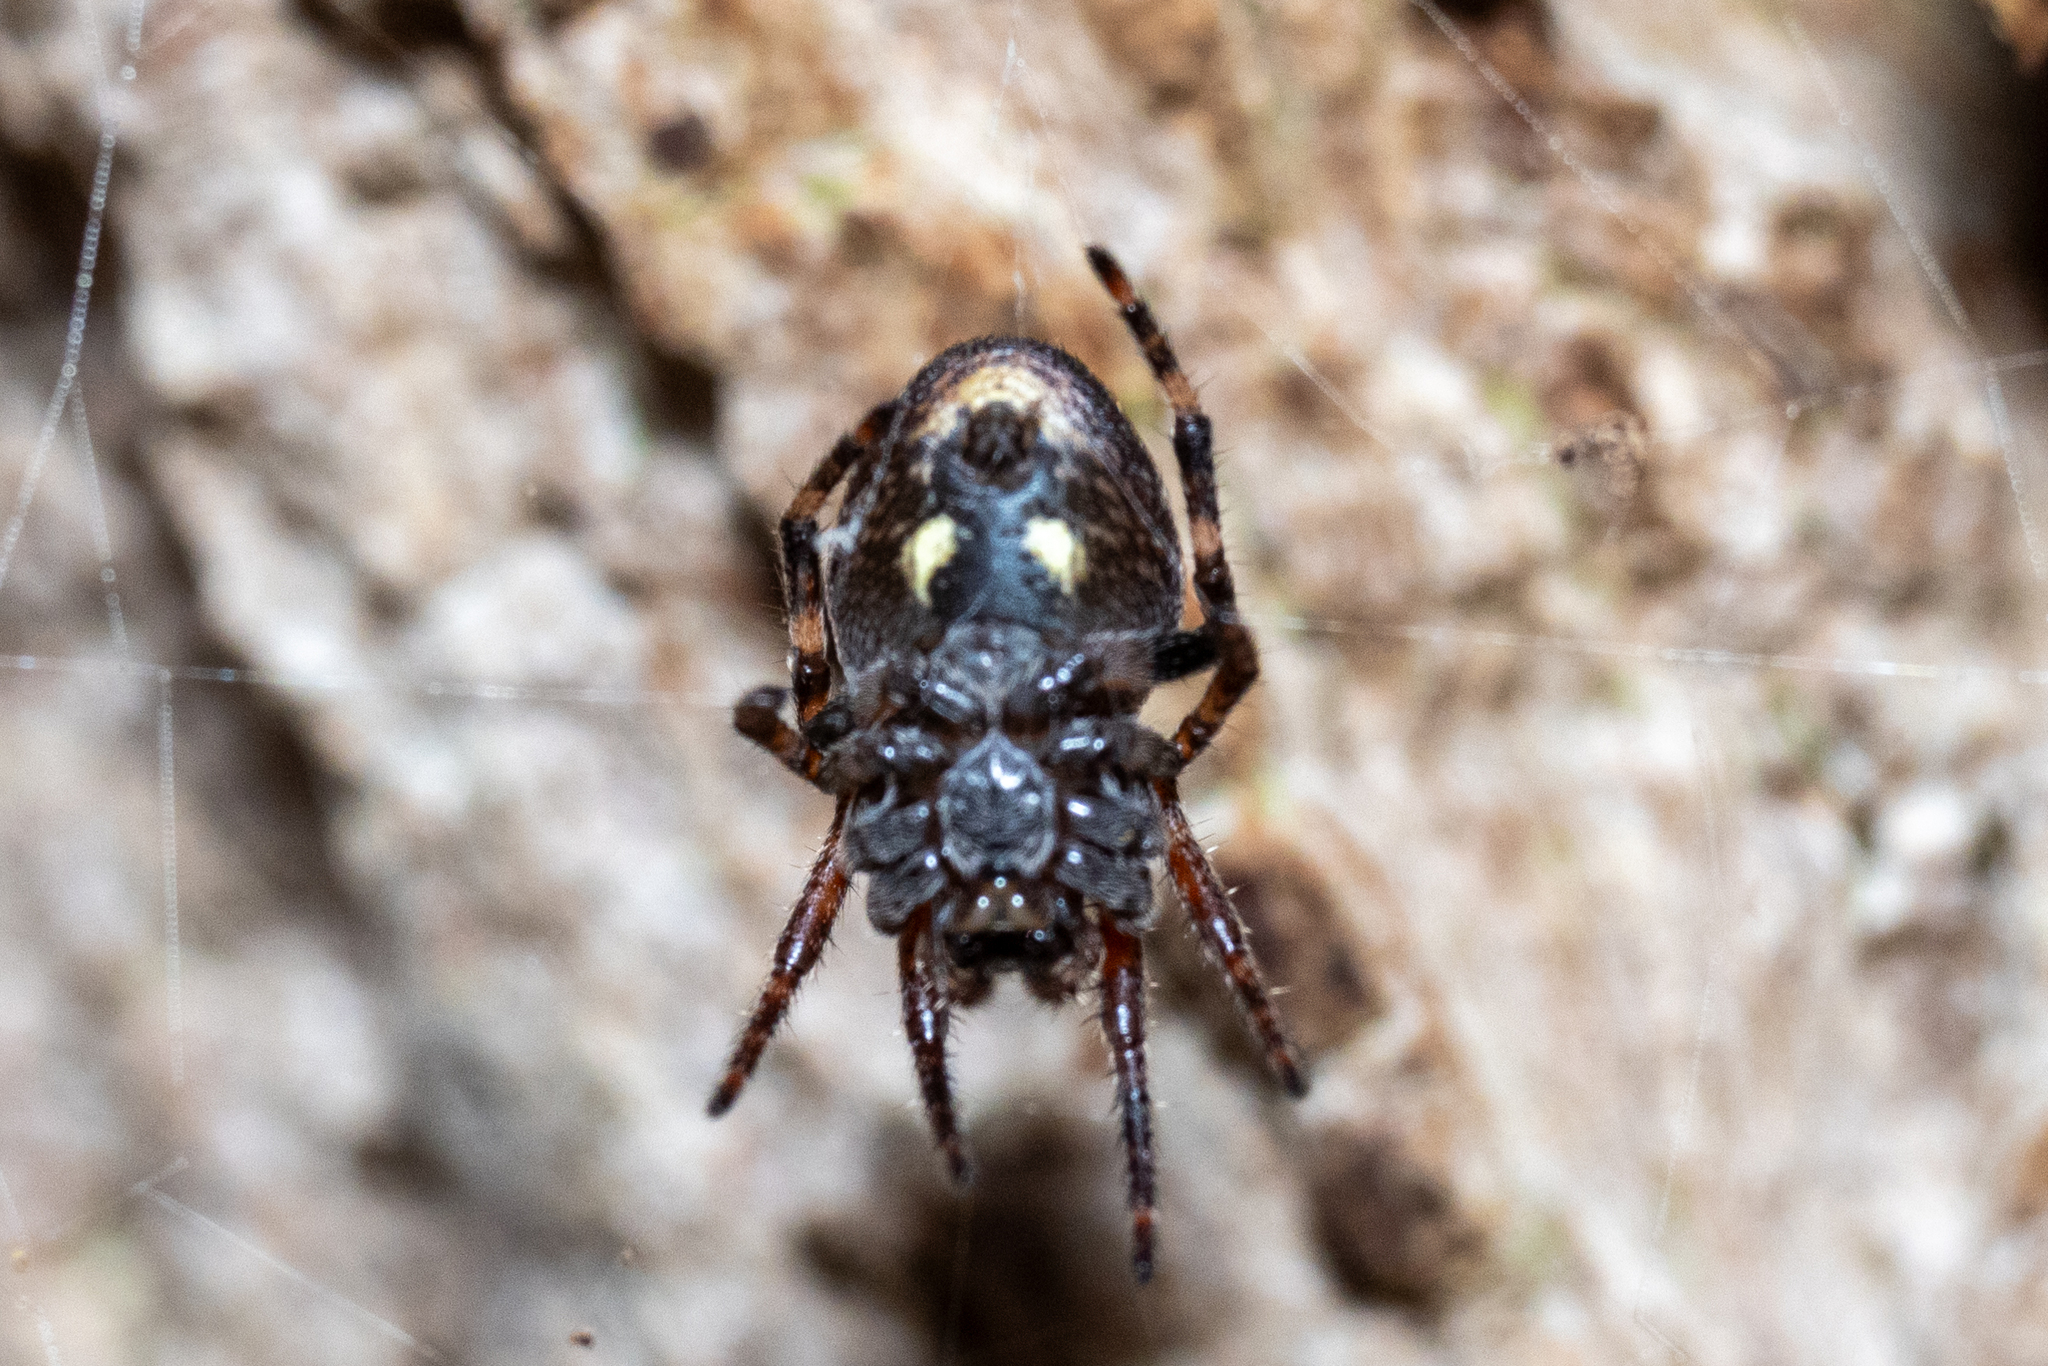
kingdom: Animalia
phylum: Arthropoda
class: Arachnida
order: Araneae
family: Araneidae
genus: Nuctenea
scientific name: Nuctenea umbratica
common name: Toad spider
